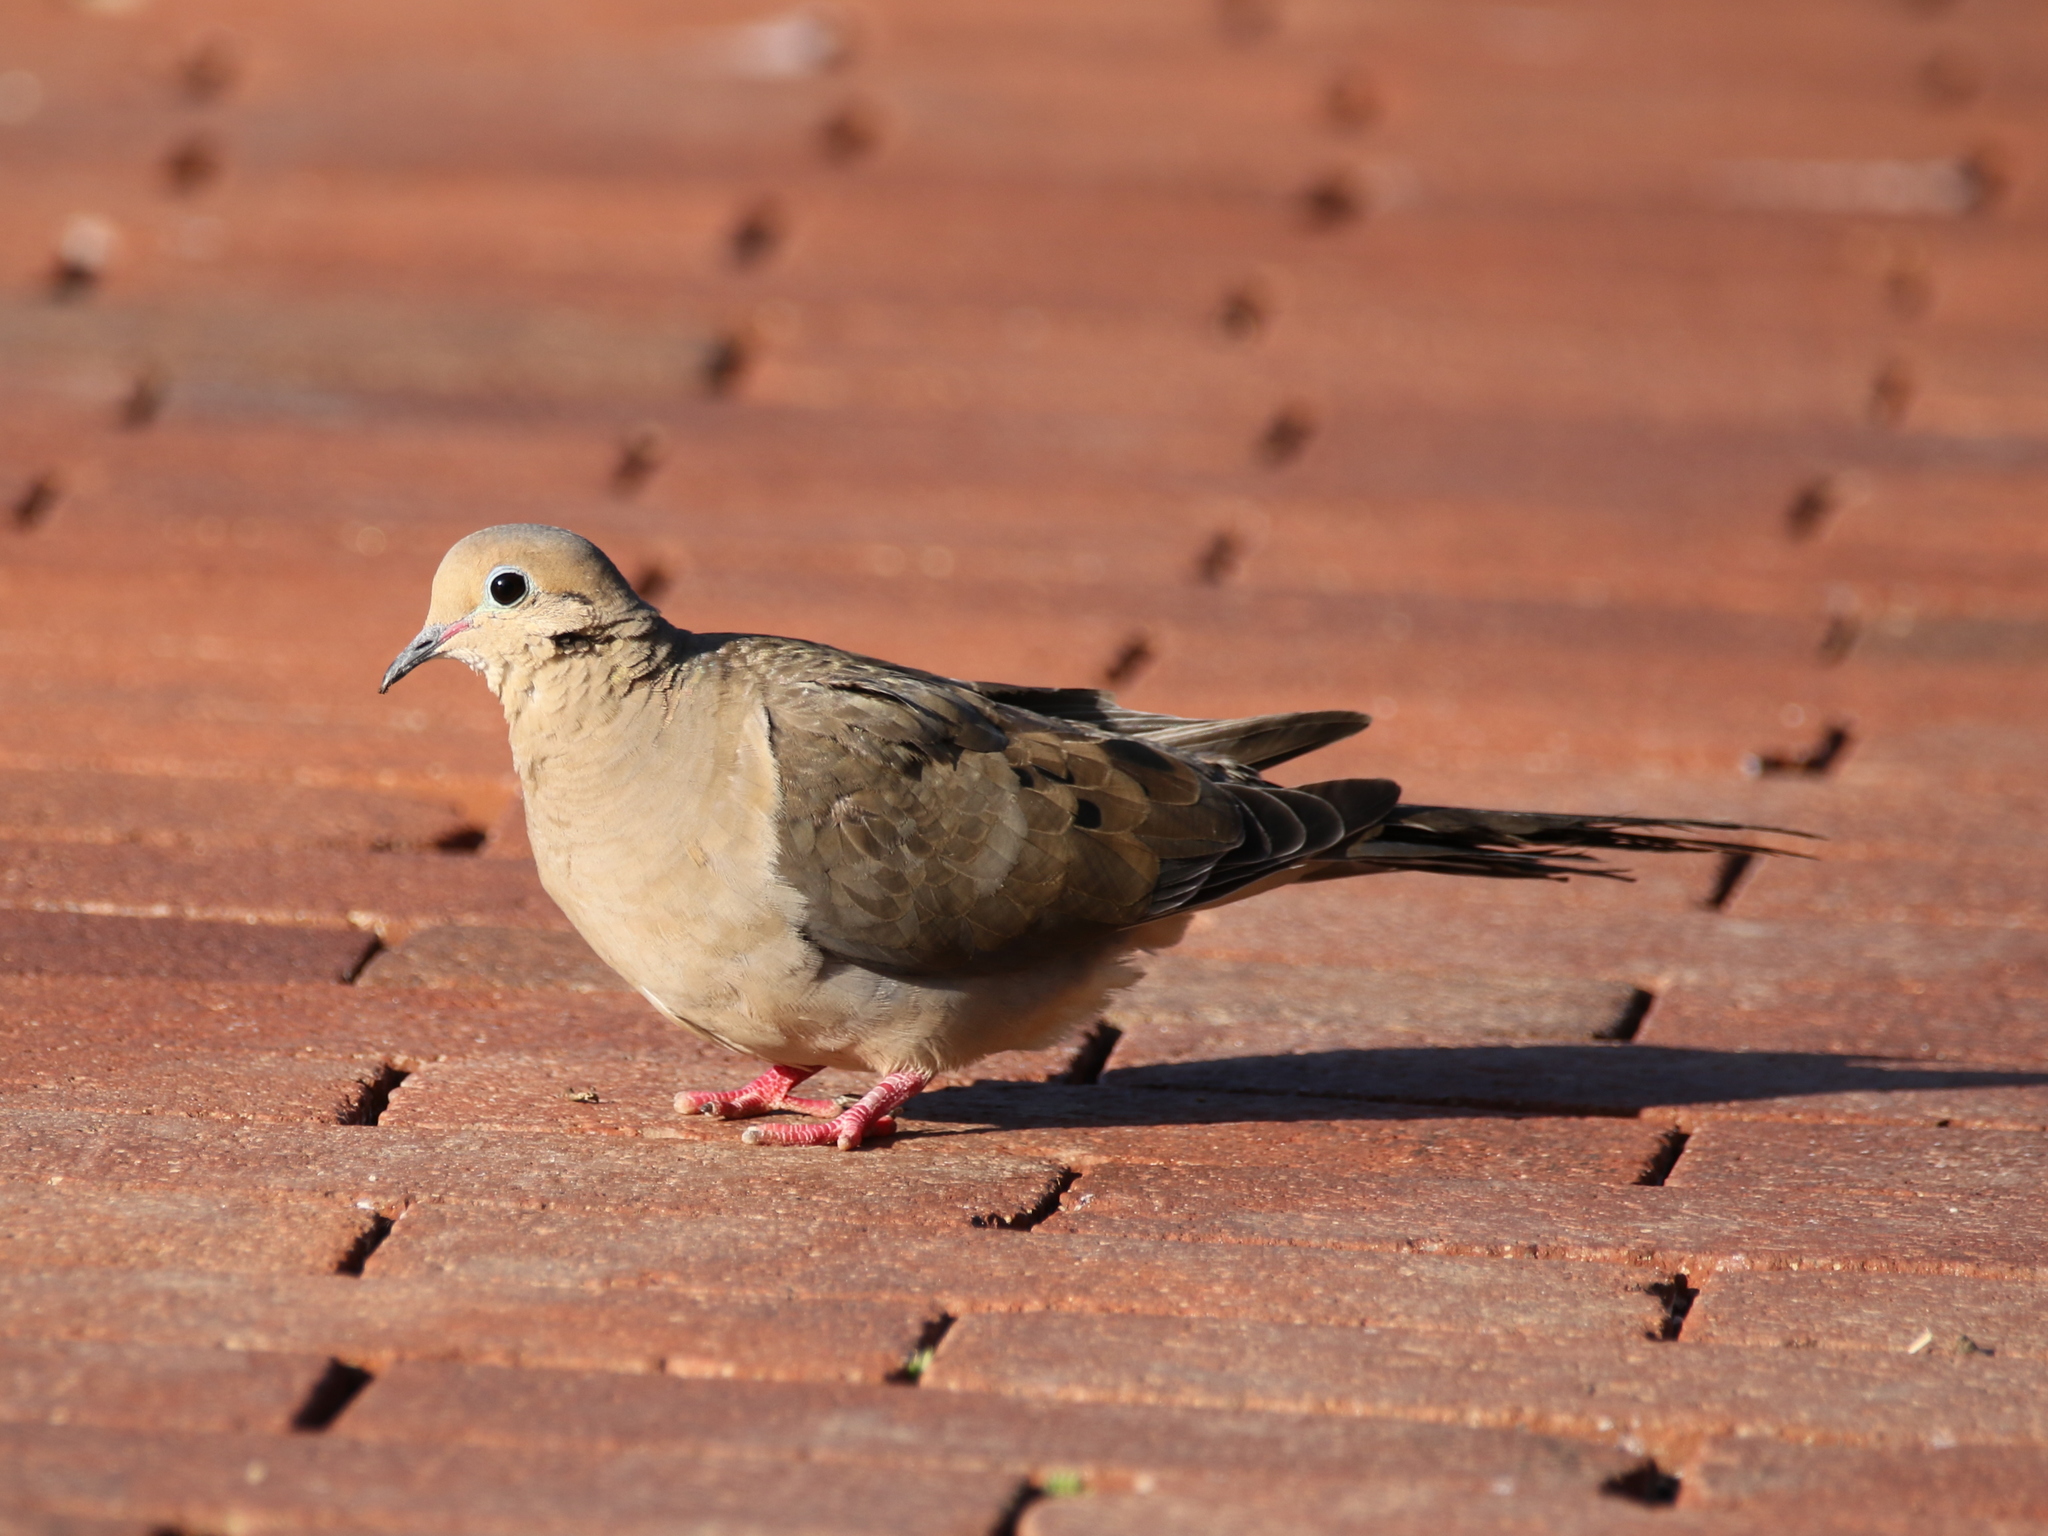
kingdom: Animalia
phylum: Chordata
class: Aves
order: Columbiformes
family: Columbidae
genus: Zenaida
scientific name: Zenaida macroura
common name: Mourning dove
